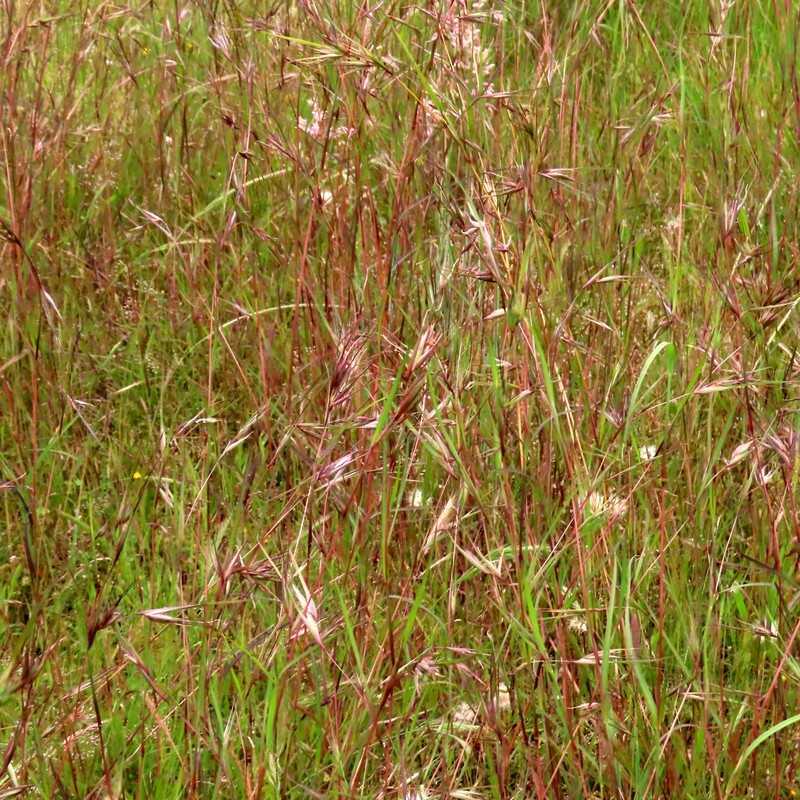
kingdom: Plantae
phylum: Tracheophyta
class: Liliopsida
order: Poales
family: Poaceae
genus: Themeda
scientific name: Themeda triandra
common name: Kangaroo grass
